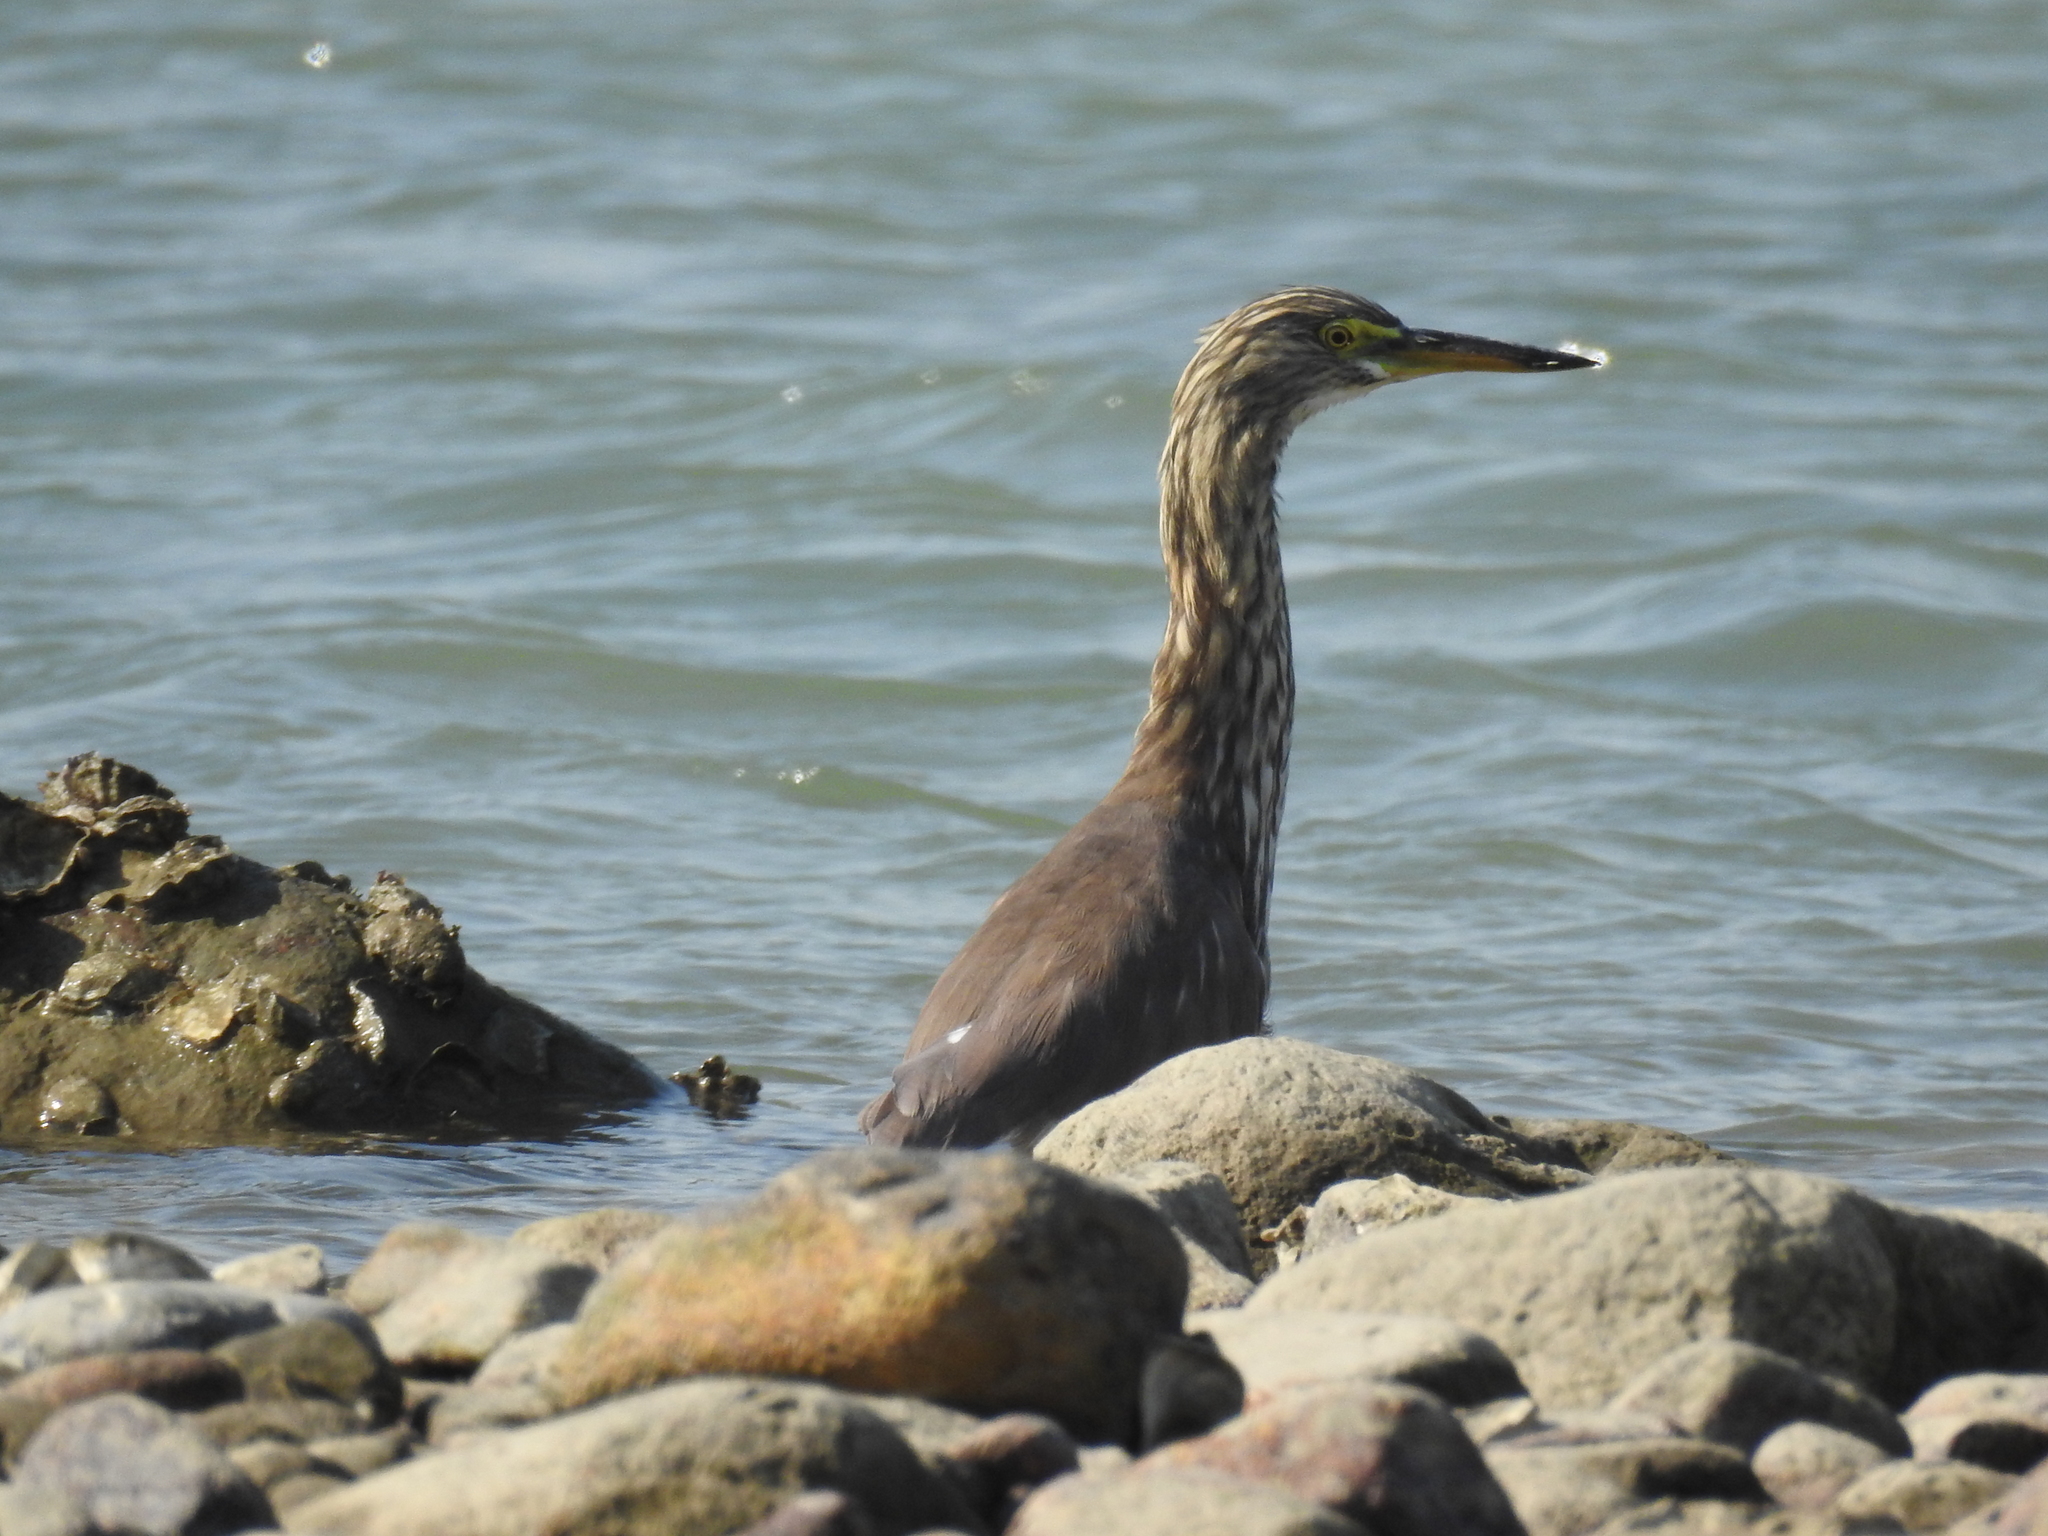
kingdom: Animalia
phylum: Chordata
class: Aves
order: Pelecaniformes
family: Ardeidae
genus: Ardeola
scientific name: Ardeola bacchus
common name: Chinese pond heron
